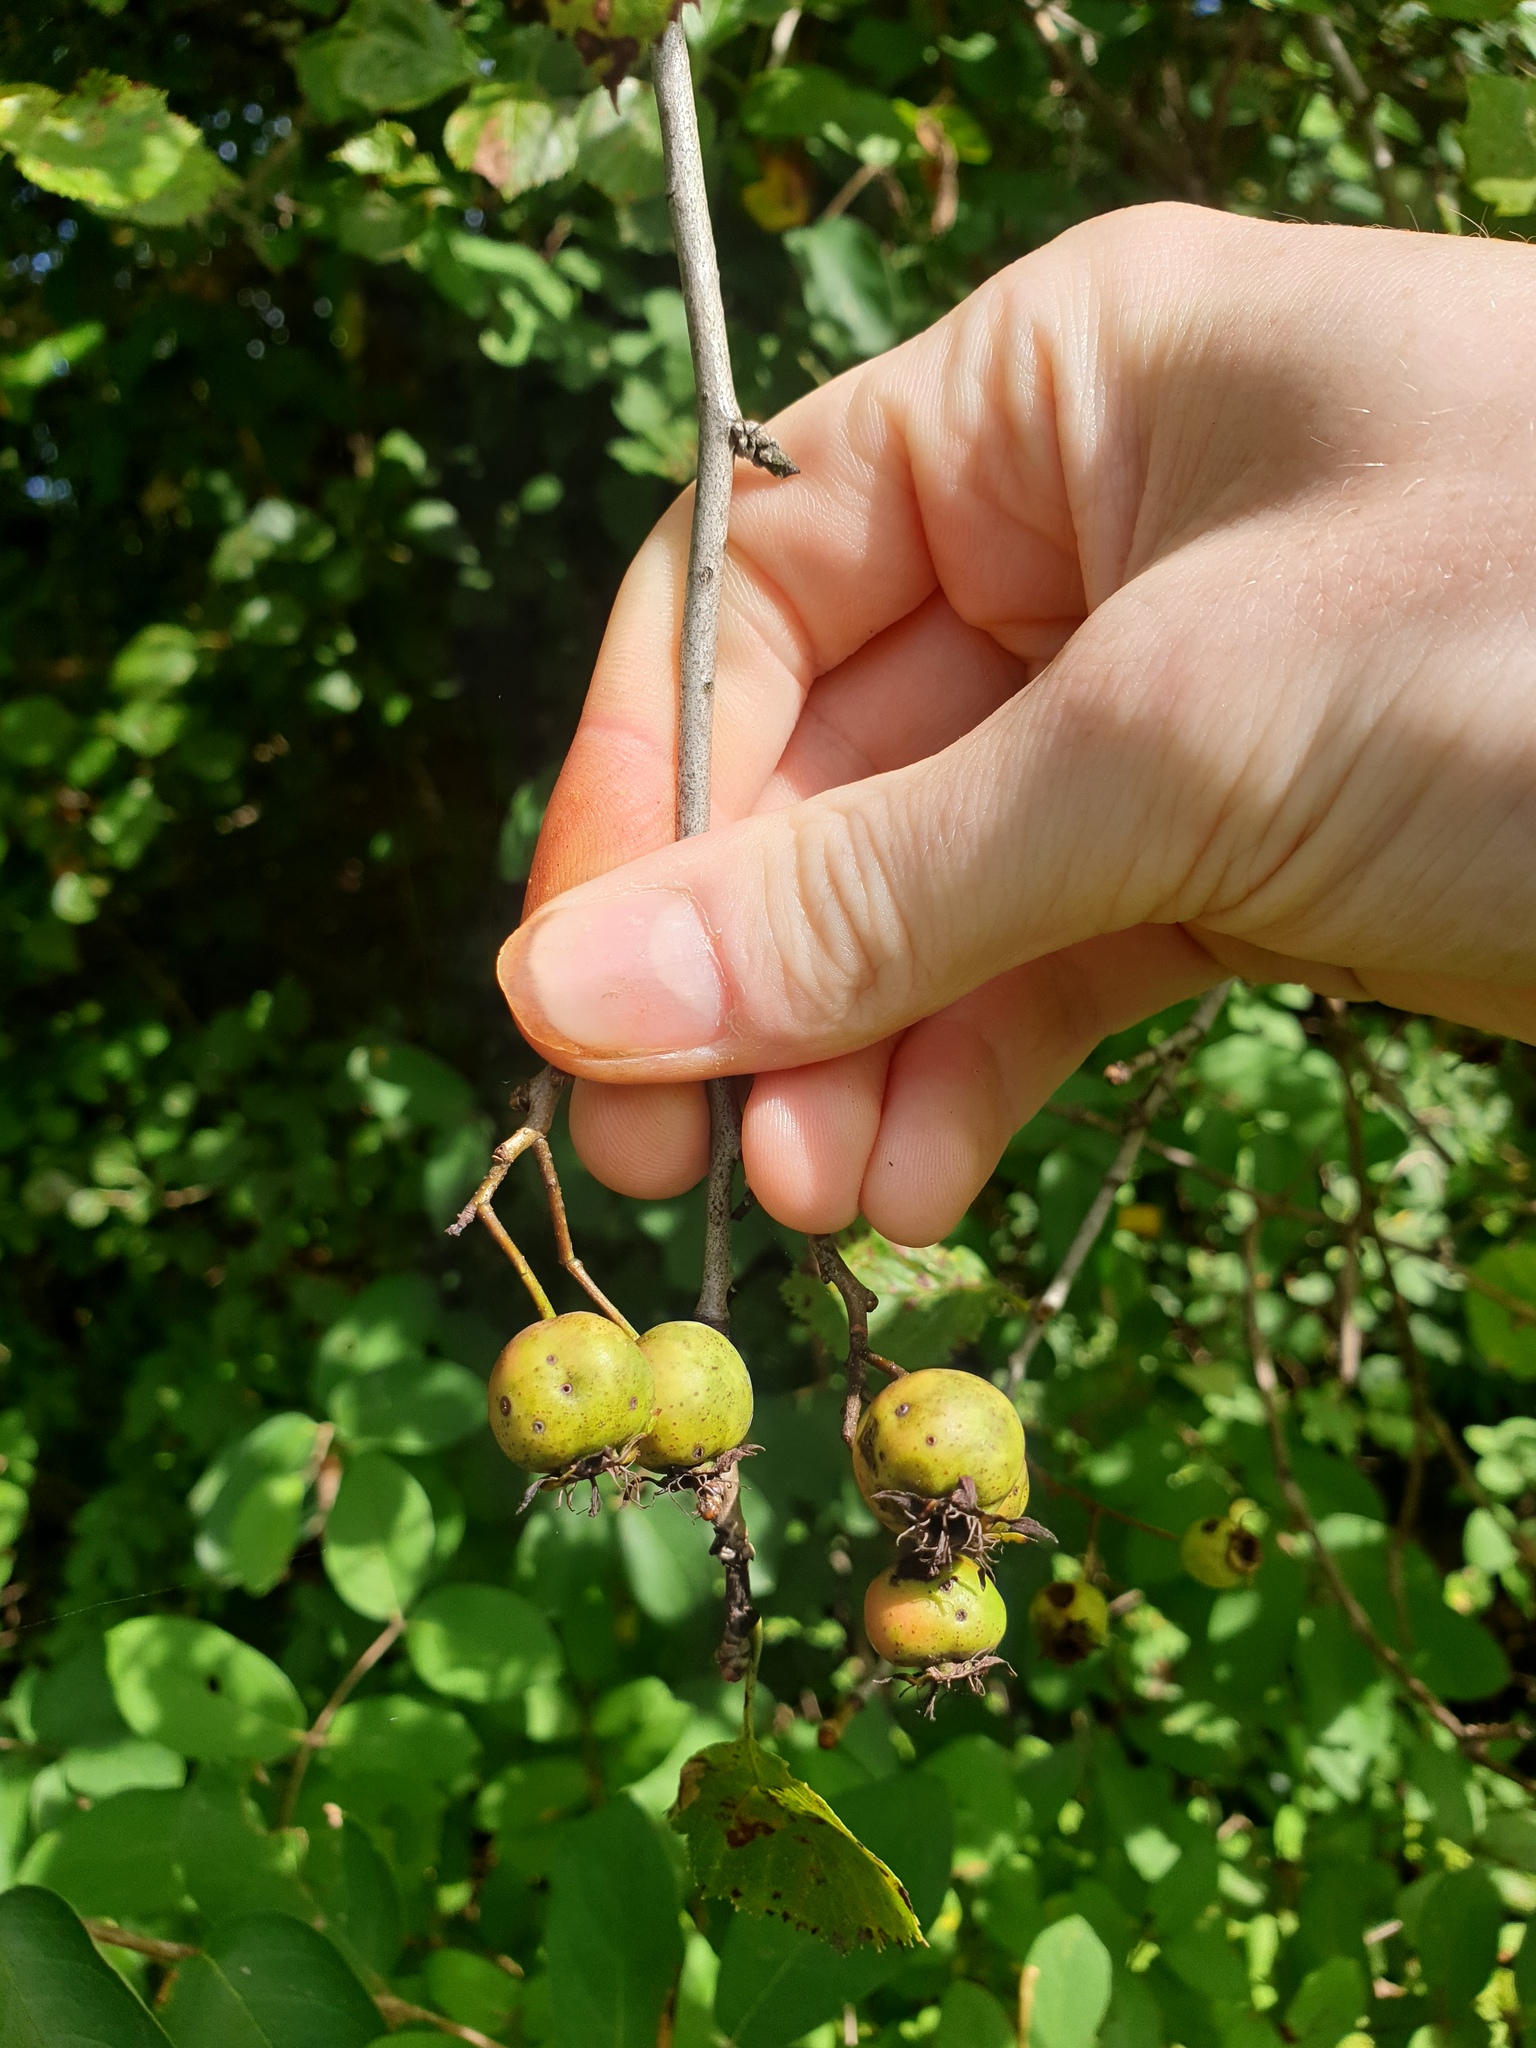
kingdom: Plantae
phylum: Tracheophyta
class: Magnoliopsida
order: Rosales
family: Rosaceae
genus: Crataegus
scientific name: Crataegus suborbiculata
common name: Caughnawaga hawthorn
